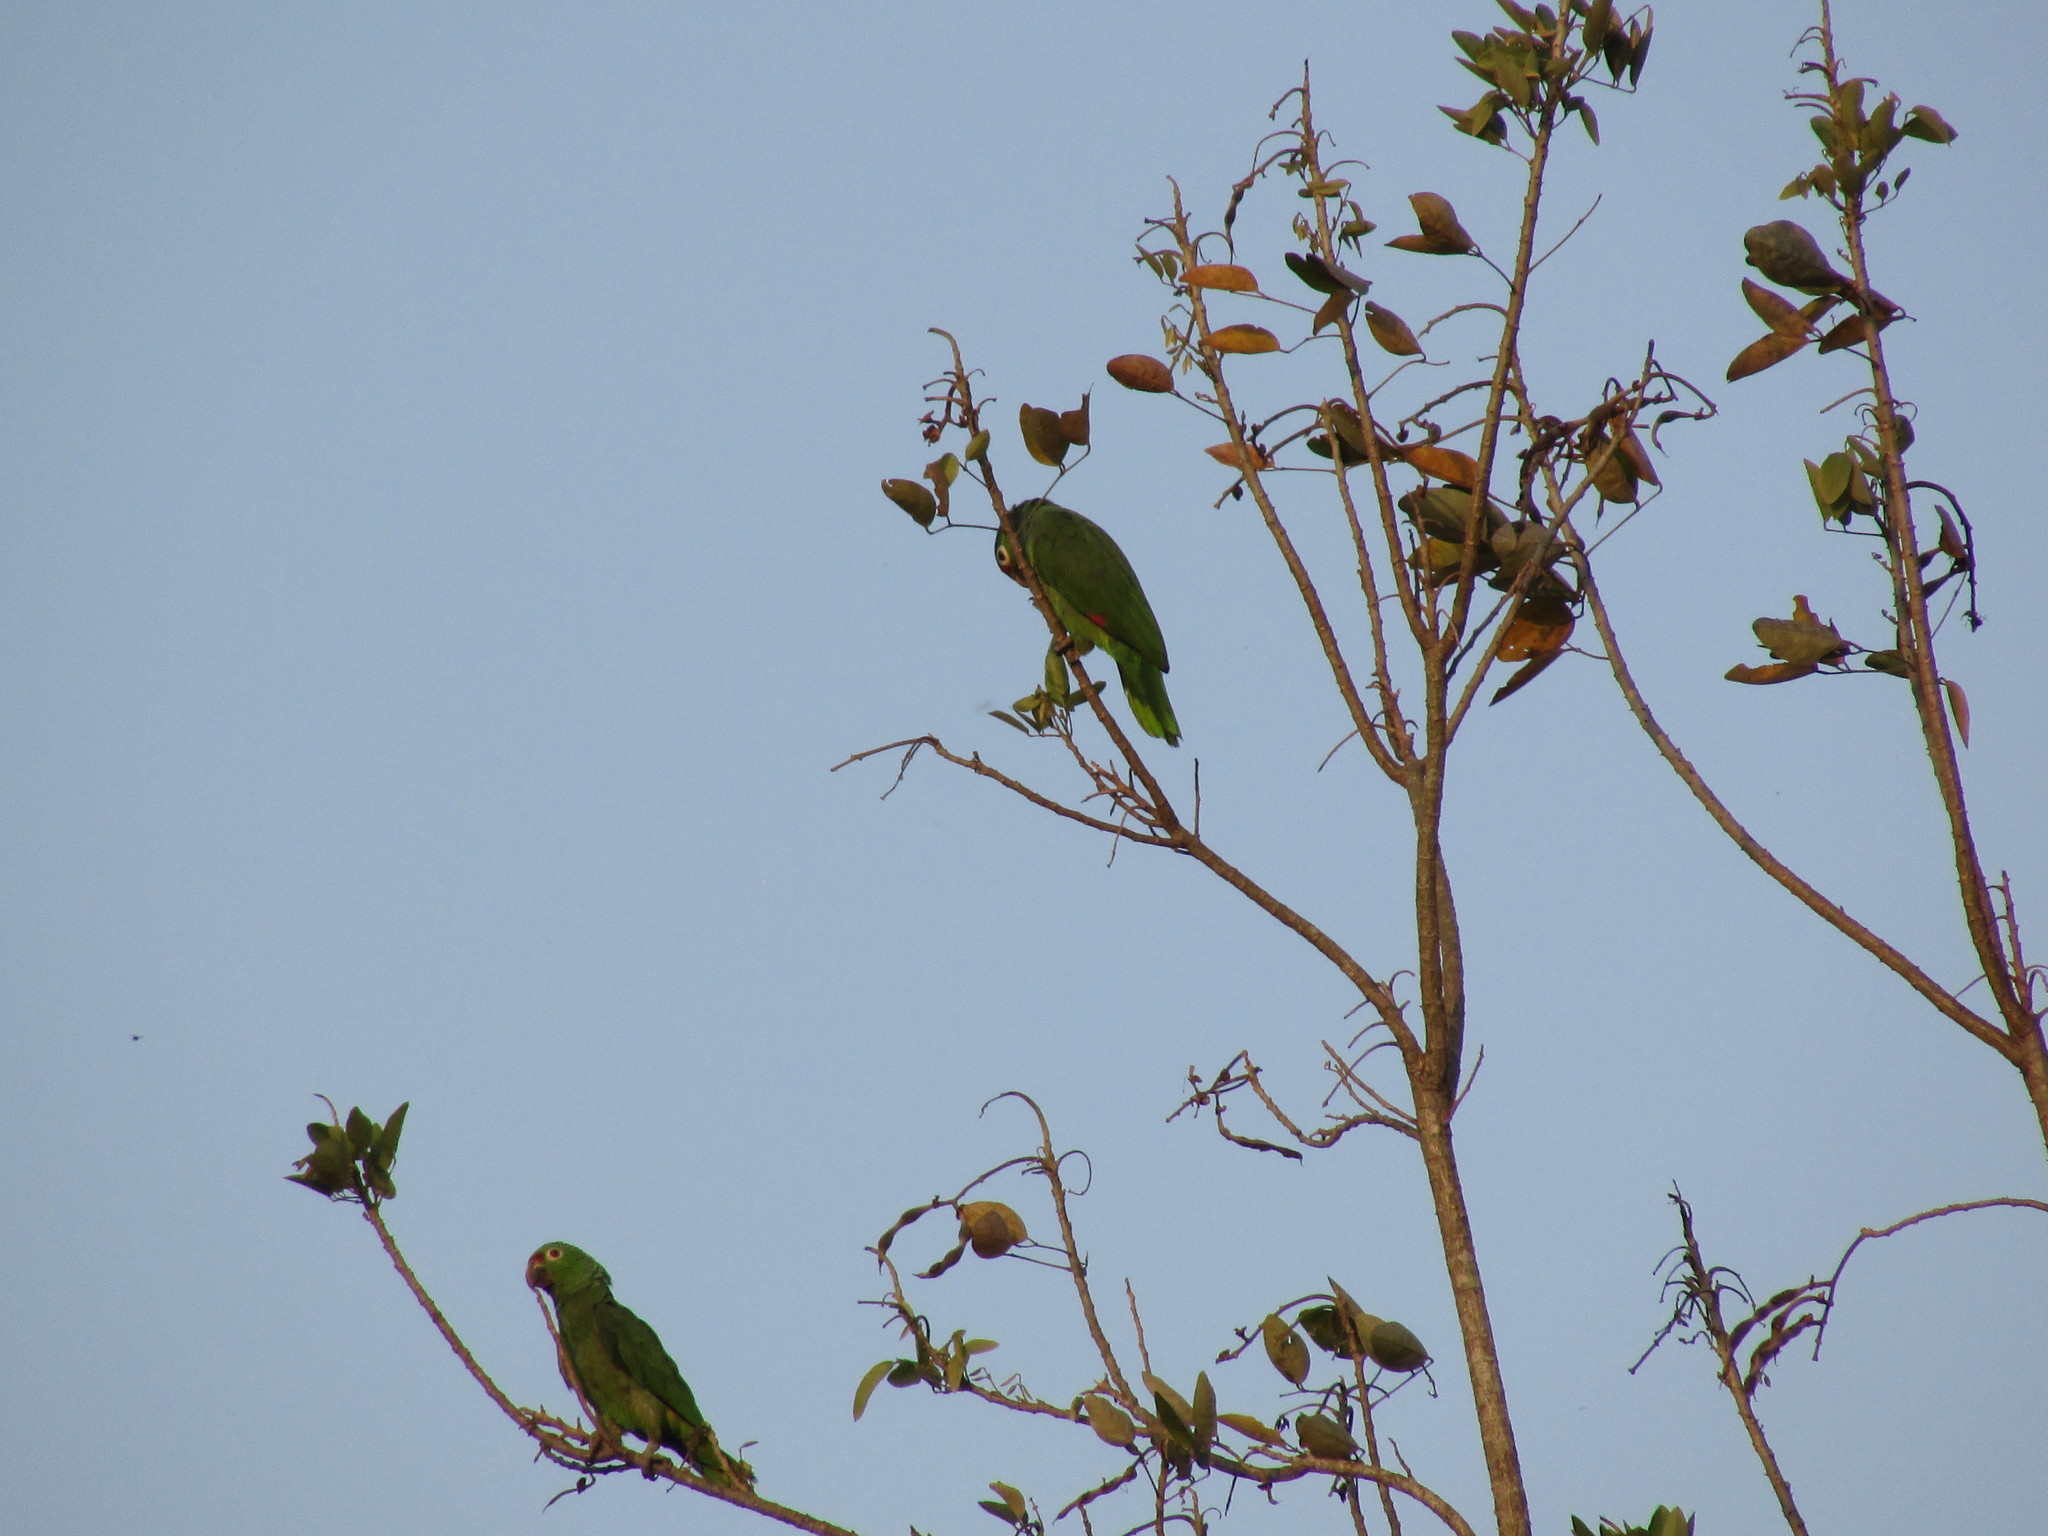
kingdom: Animalia
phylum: Chordata
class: Aves
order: Psittaciformes
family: Psittacidae
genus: Amazona
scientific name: Amazona autumnalis
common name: Red-lored amazon
